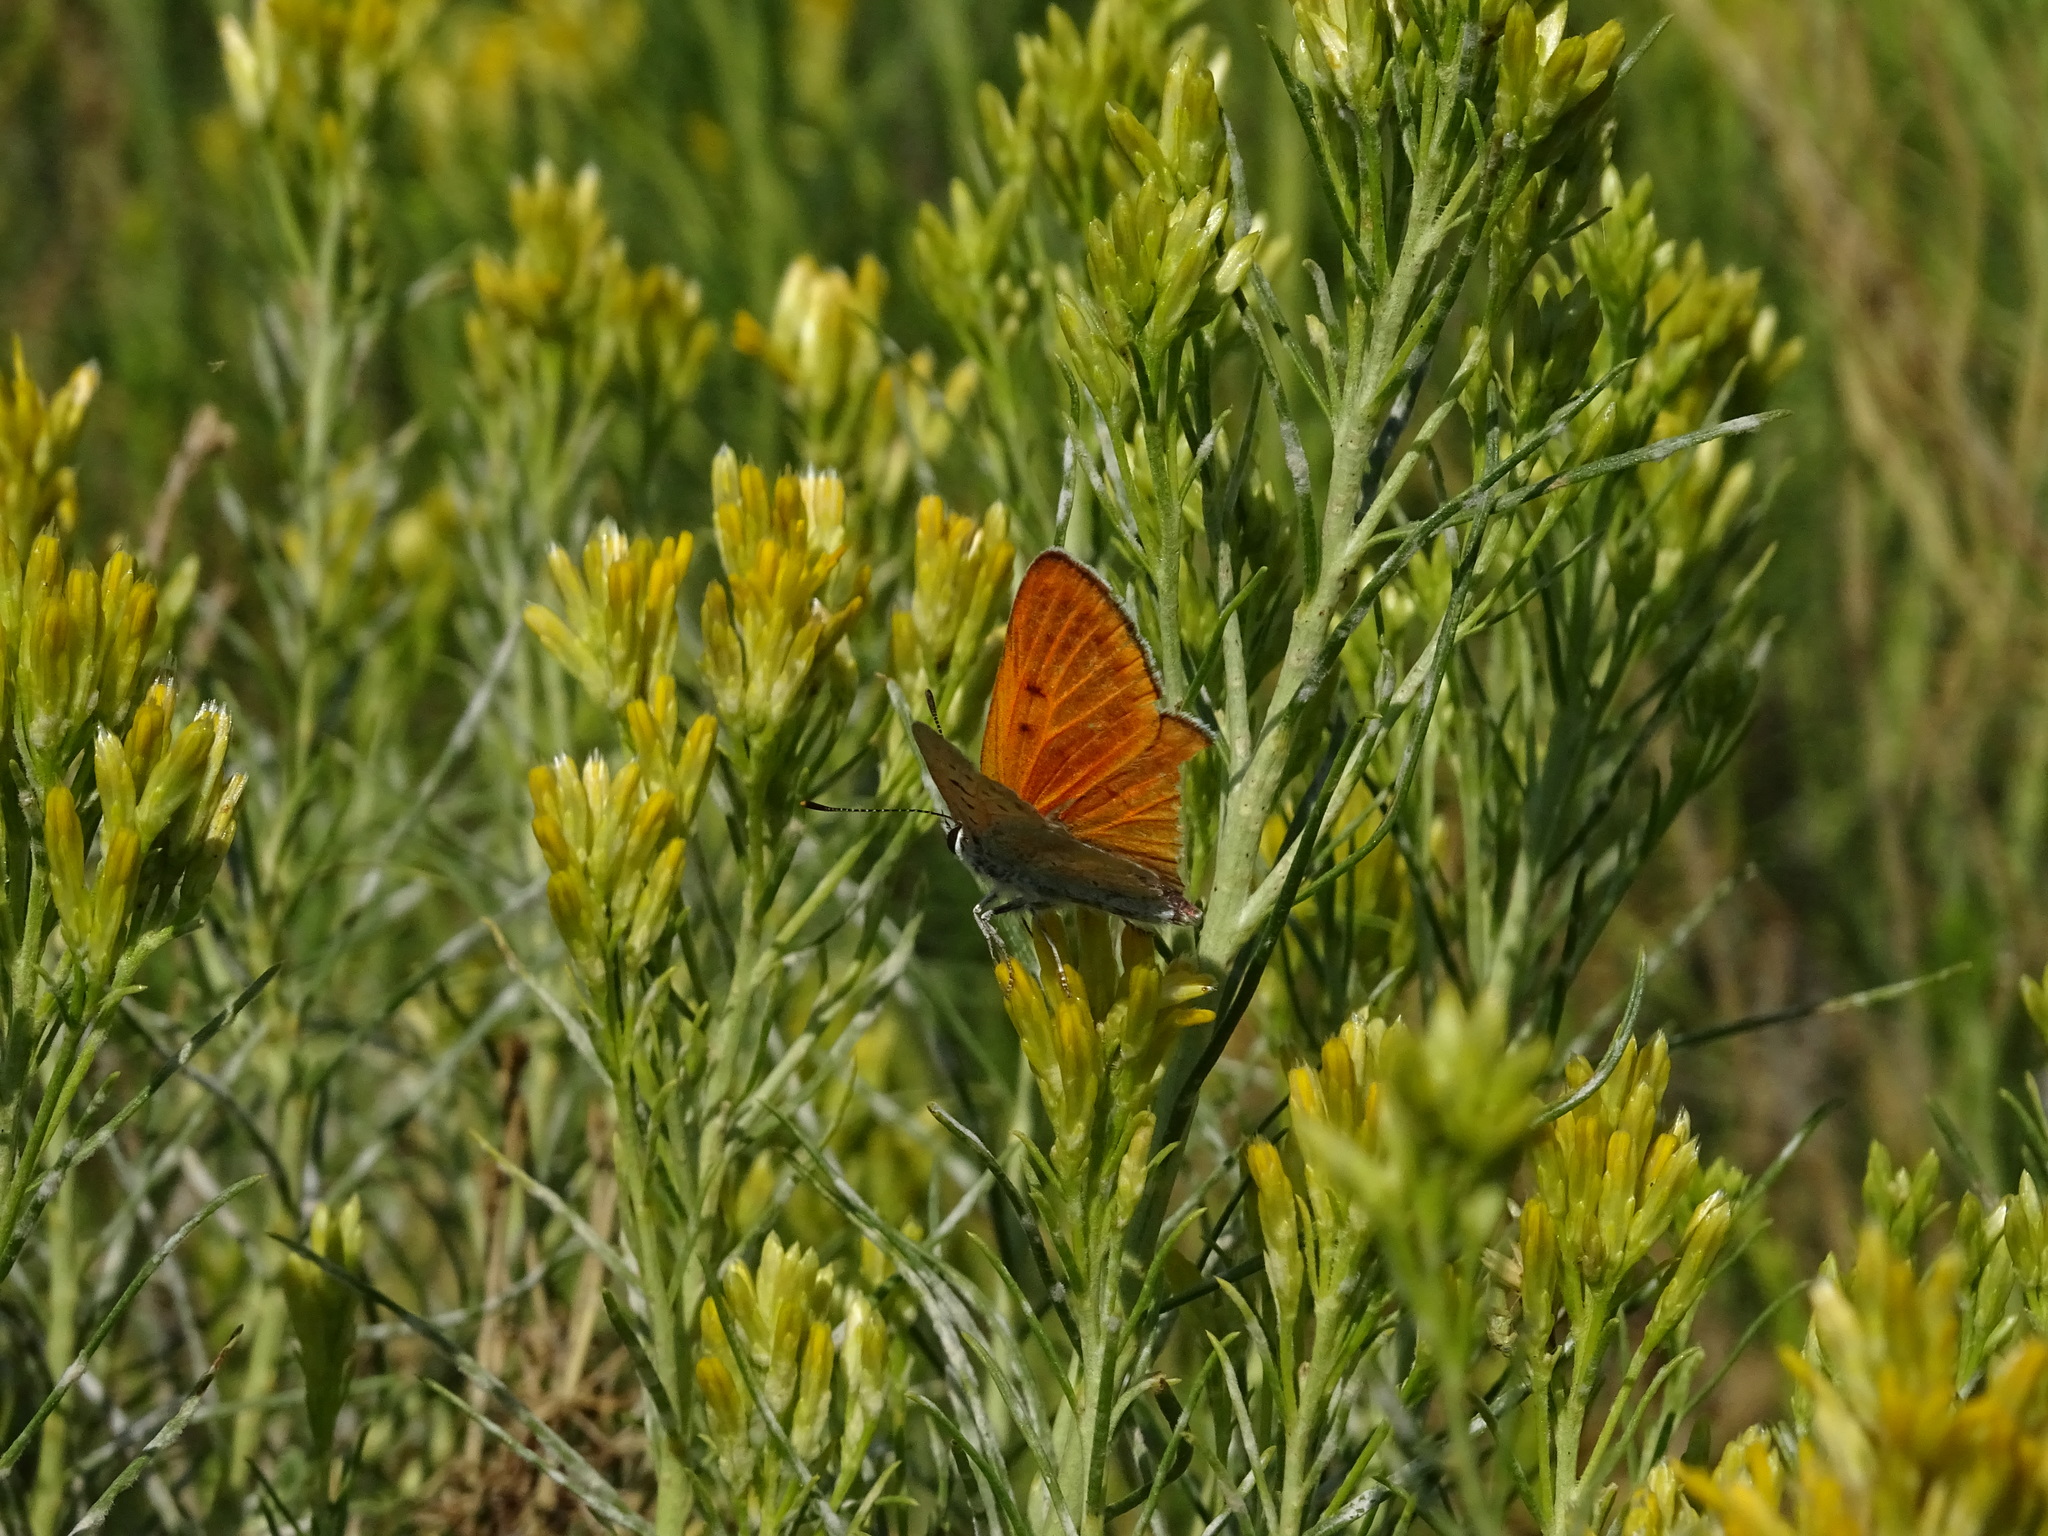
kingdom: Animalia
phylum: Arthropoda
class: Insecta
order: Lepidoptera
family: Lycaenidae
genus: Tharsalea
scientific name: Tharsalea rubidus
